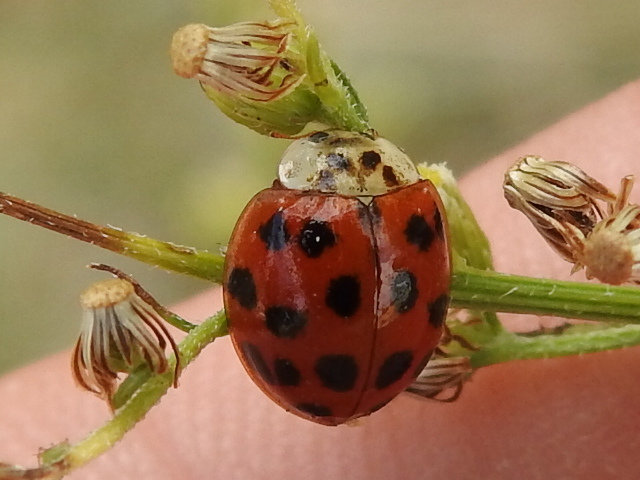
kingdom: Animalia
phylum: Arthropoda
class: Insecta
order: Coleoptera
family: Coccinellidae
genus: Harmonia
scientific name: Harmonia axyridis
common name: Harlequin ladybird
